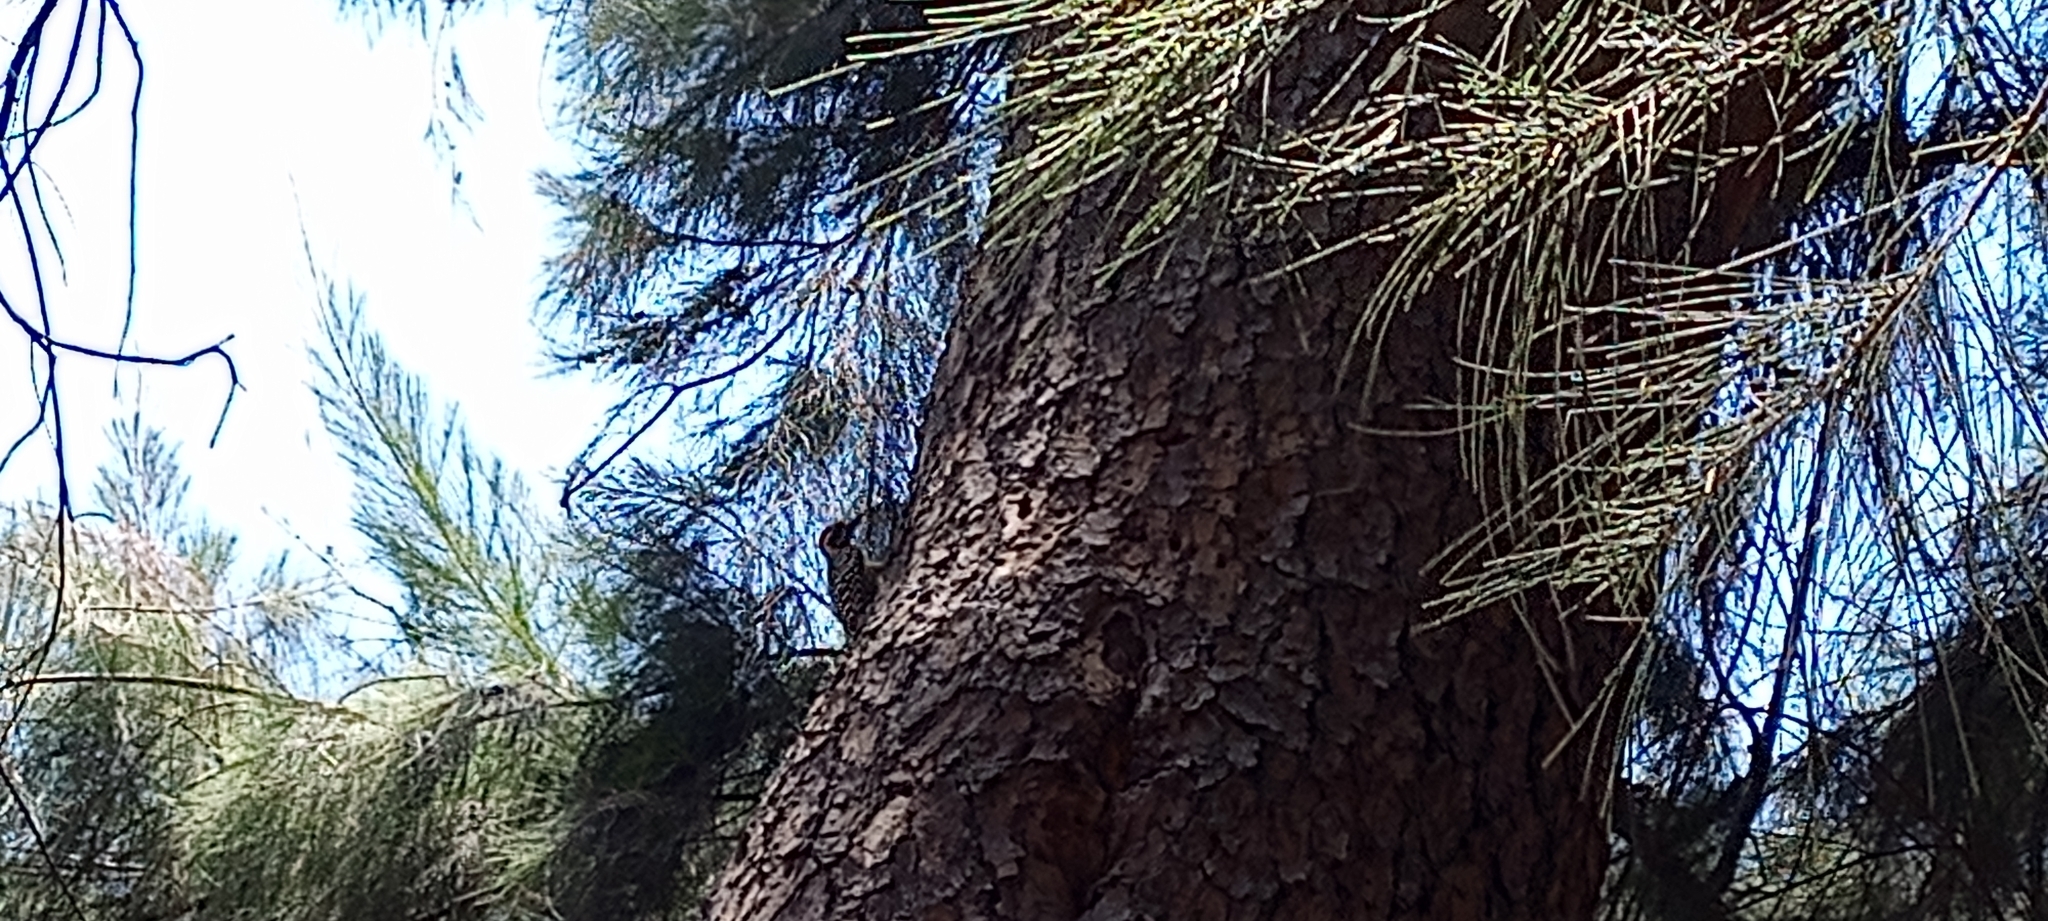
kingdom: Animalia
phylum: Chordata
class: Aves
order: Piciformes
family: Picidae
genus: Dryobates
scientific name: Dryobates scalaris
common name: Ladder-backed woodpecker
